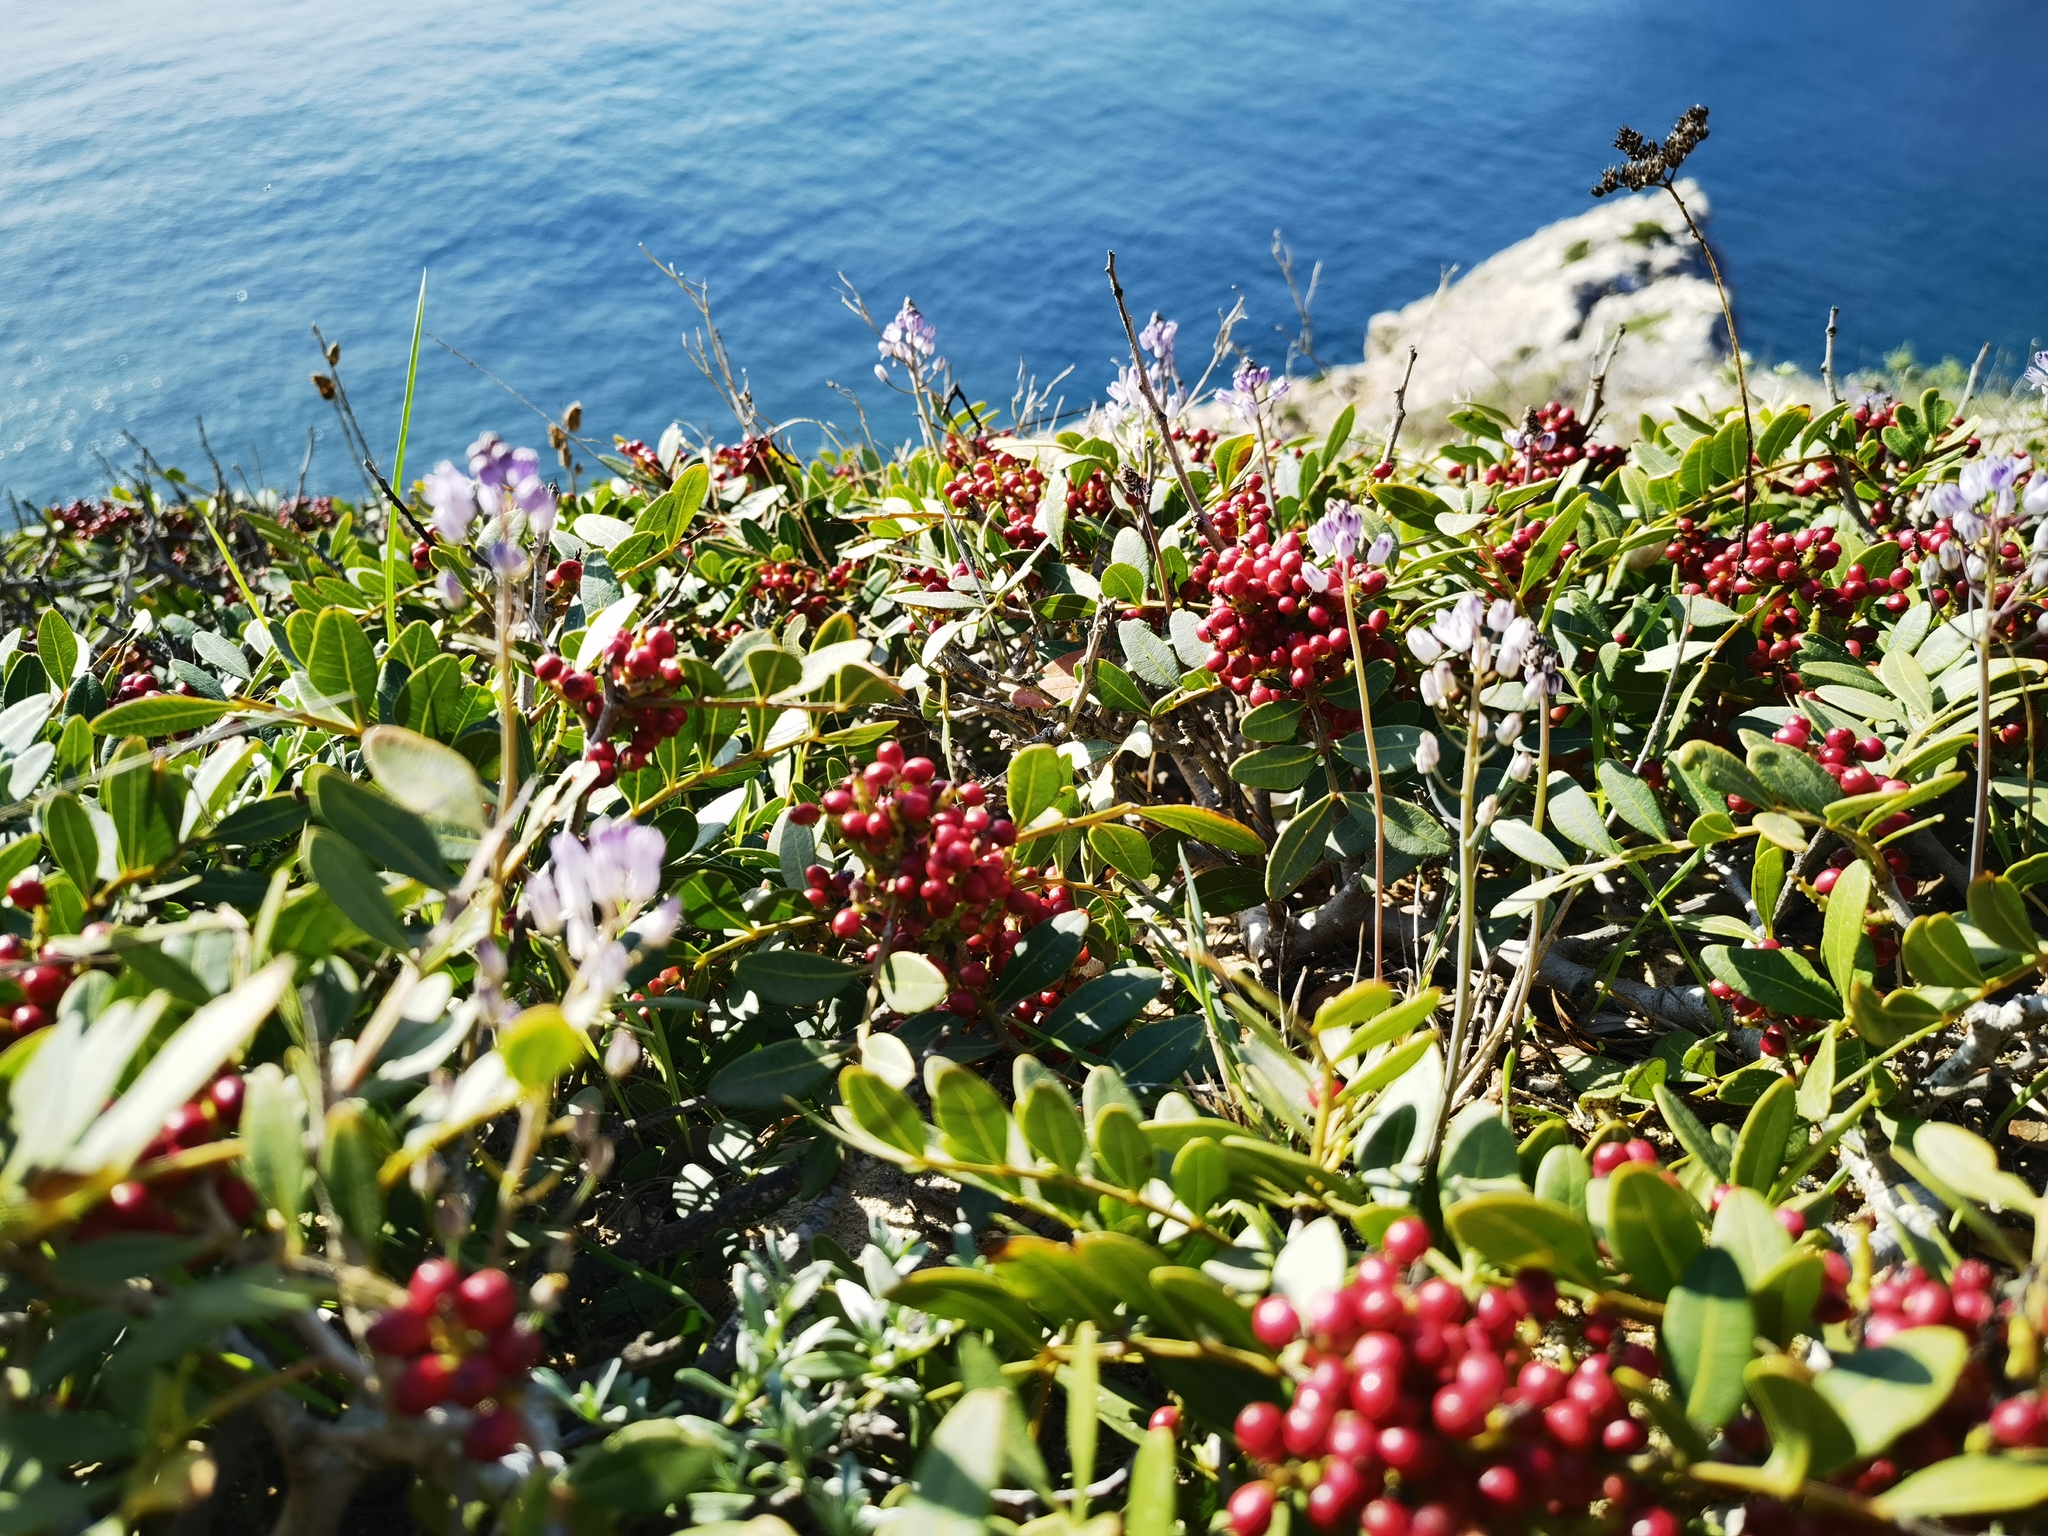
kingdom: Plantae
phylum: Tracheophyta
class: Magnoliopsida
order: Sapindales
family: Anacardiaceae
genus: Pistacia
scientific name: Pistacia lentiscus
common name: Lentisk
